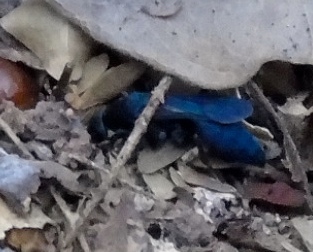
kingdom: Animalia
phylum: Arthropoda
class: Insecta
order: Hymenoptera
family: Pompilidae
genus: Pepsis
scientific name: Pepsis mexicana
